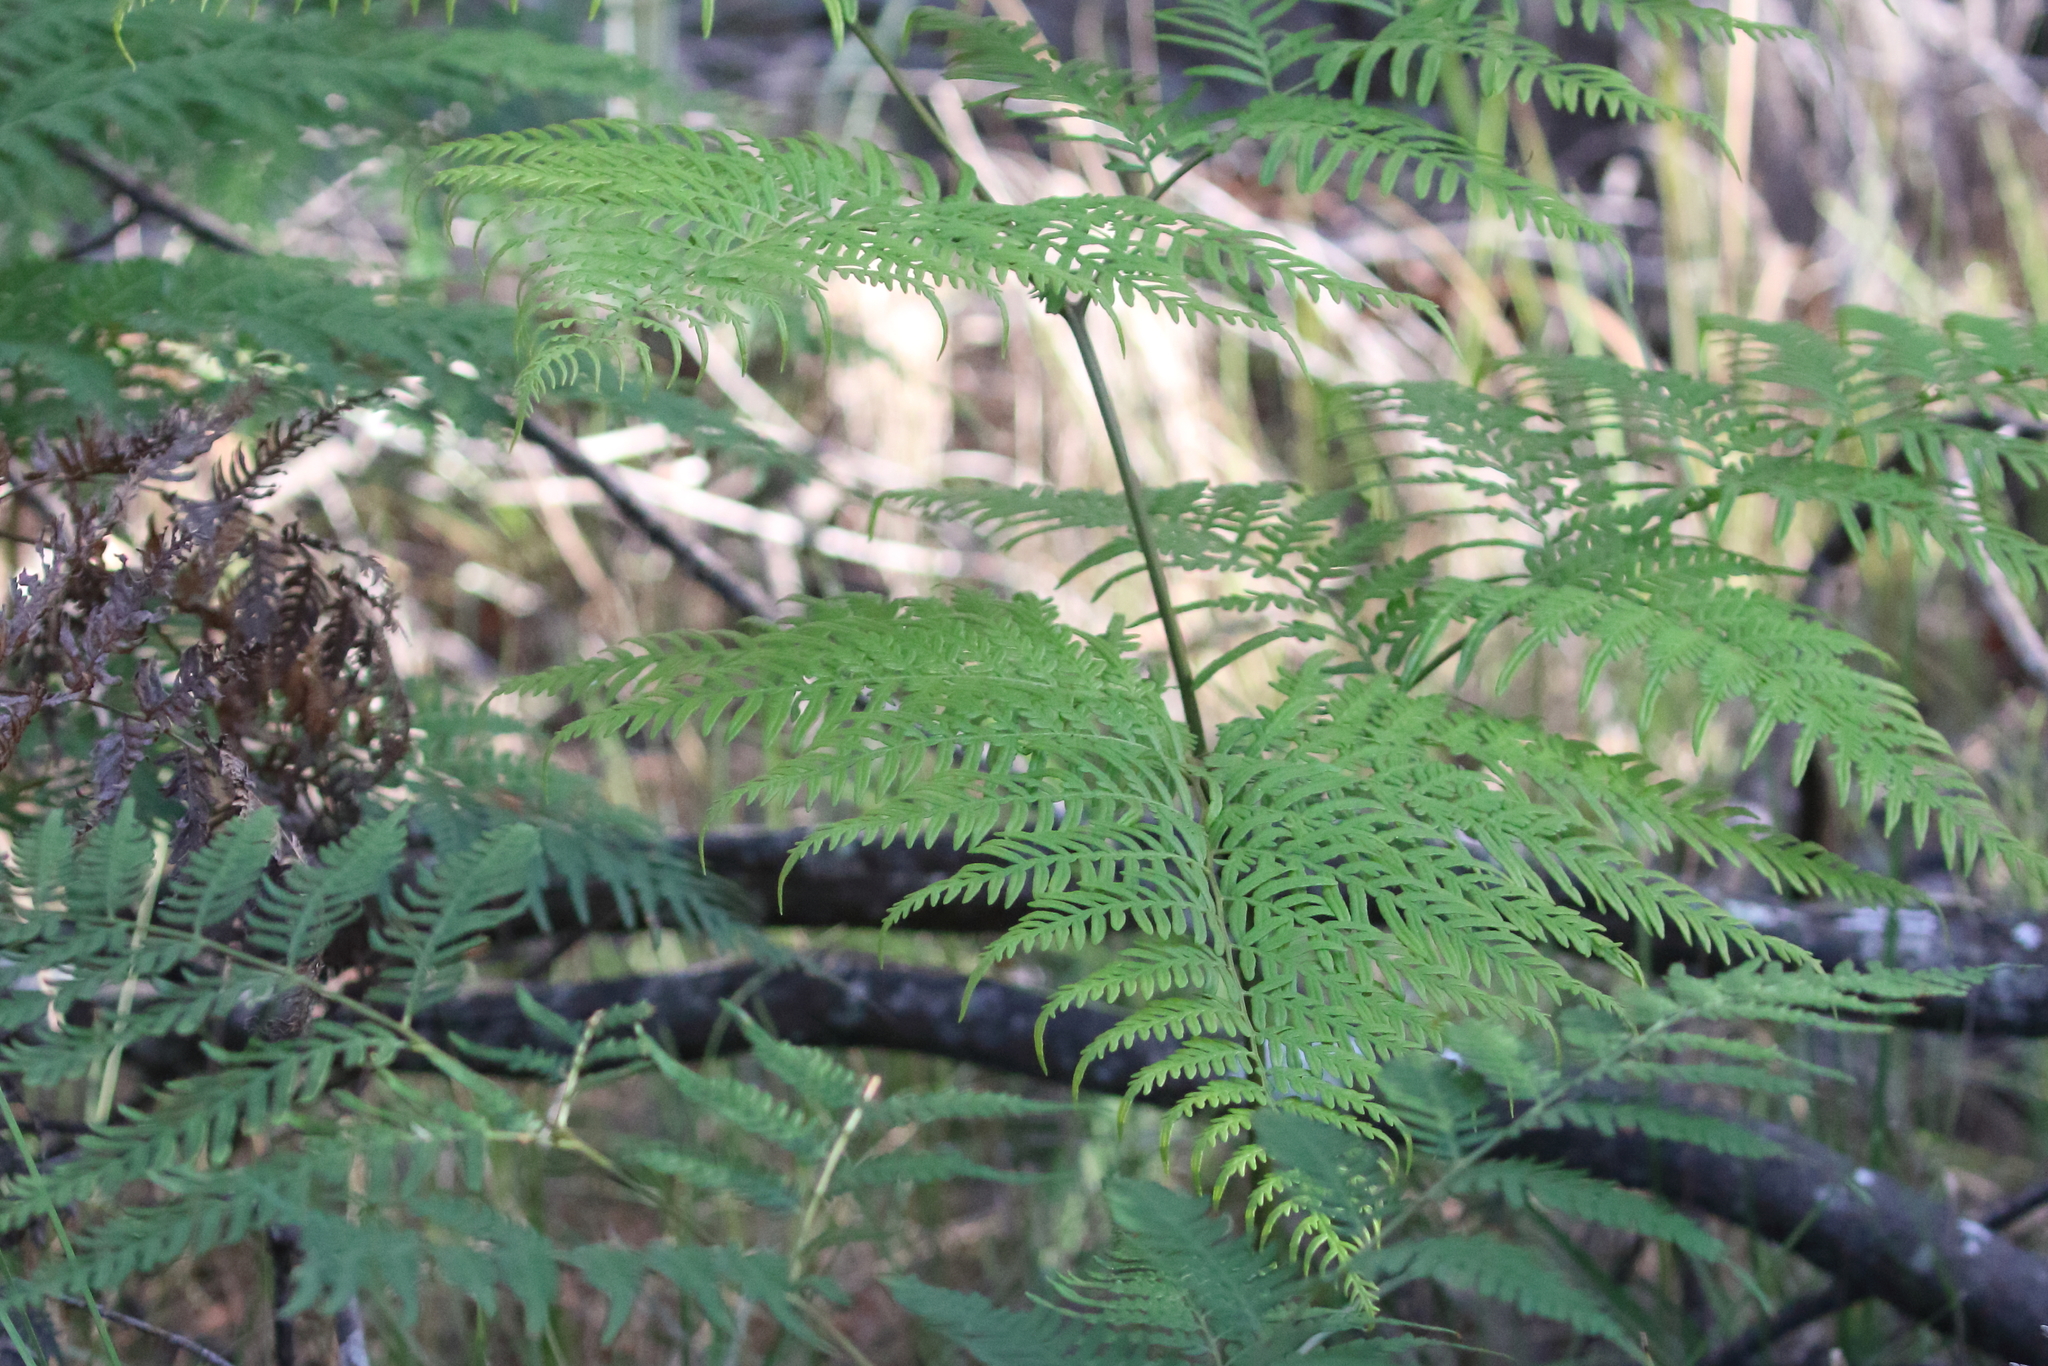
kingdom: Plantae
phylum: Tracheophyta
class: Polypodiopsida
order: Polypodiales
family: Dennstaedtiaceae
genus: Pteridium
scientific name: Pteridium esculentum
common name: Bracken fern
